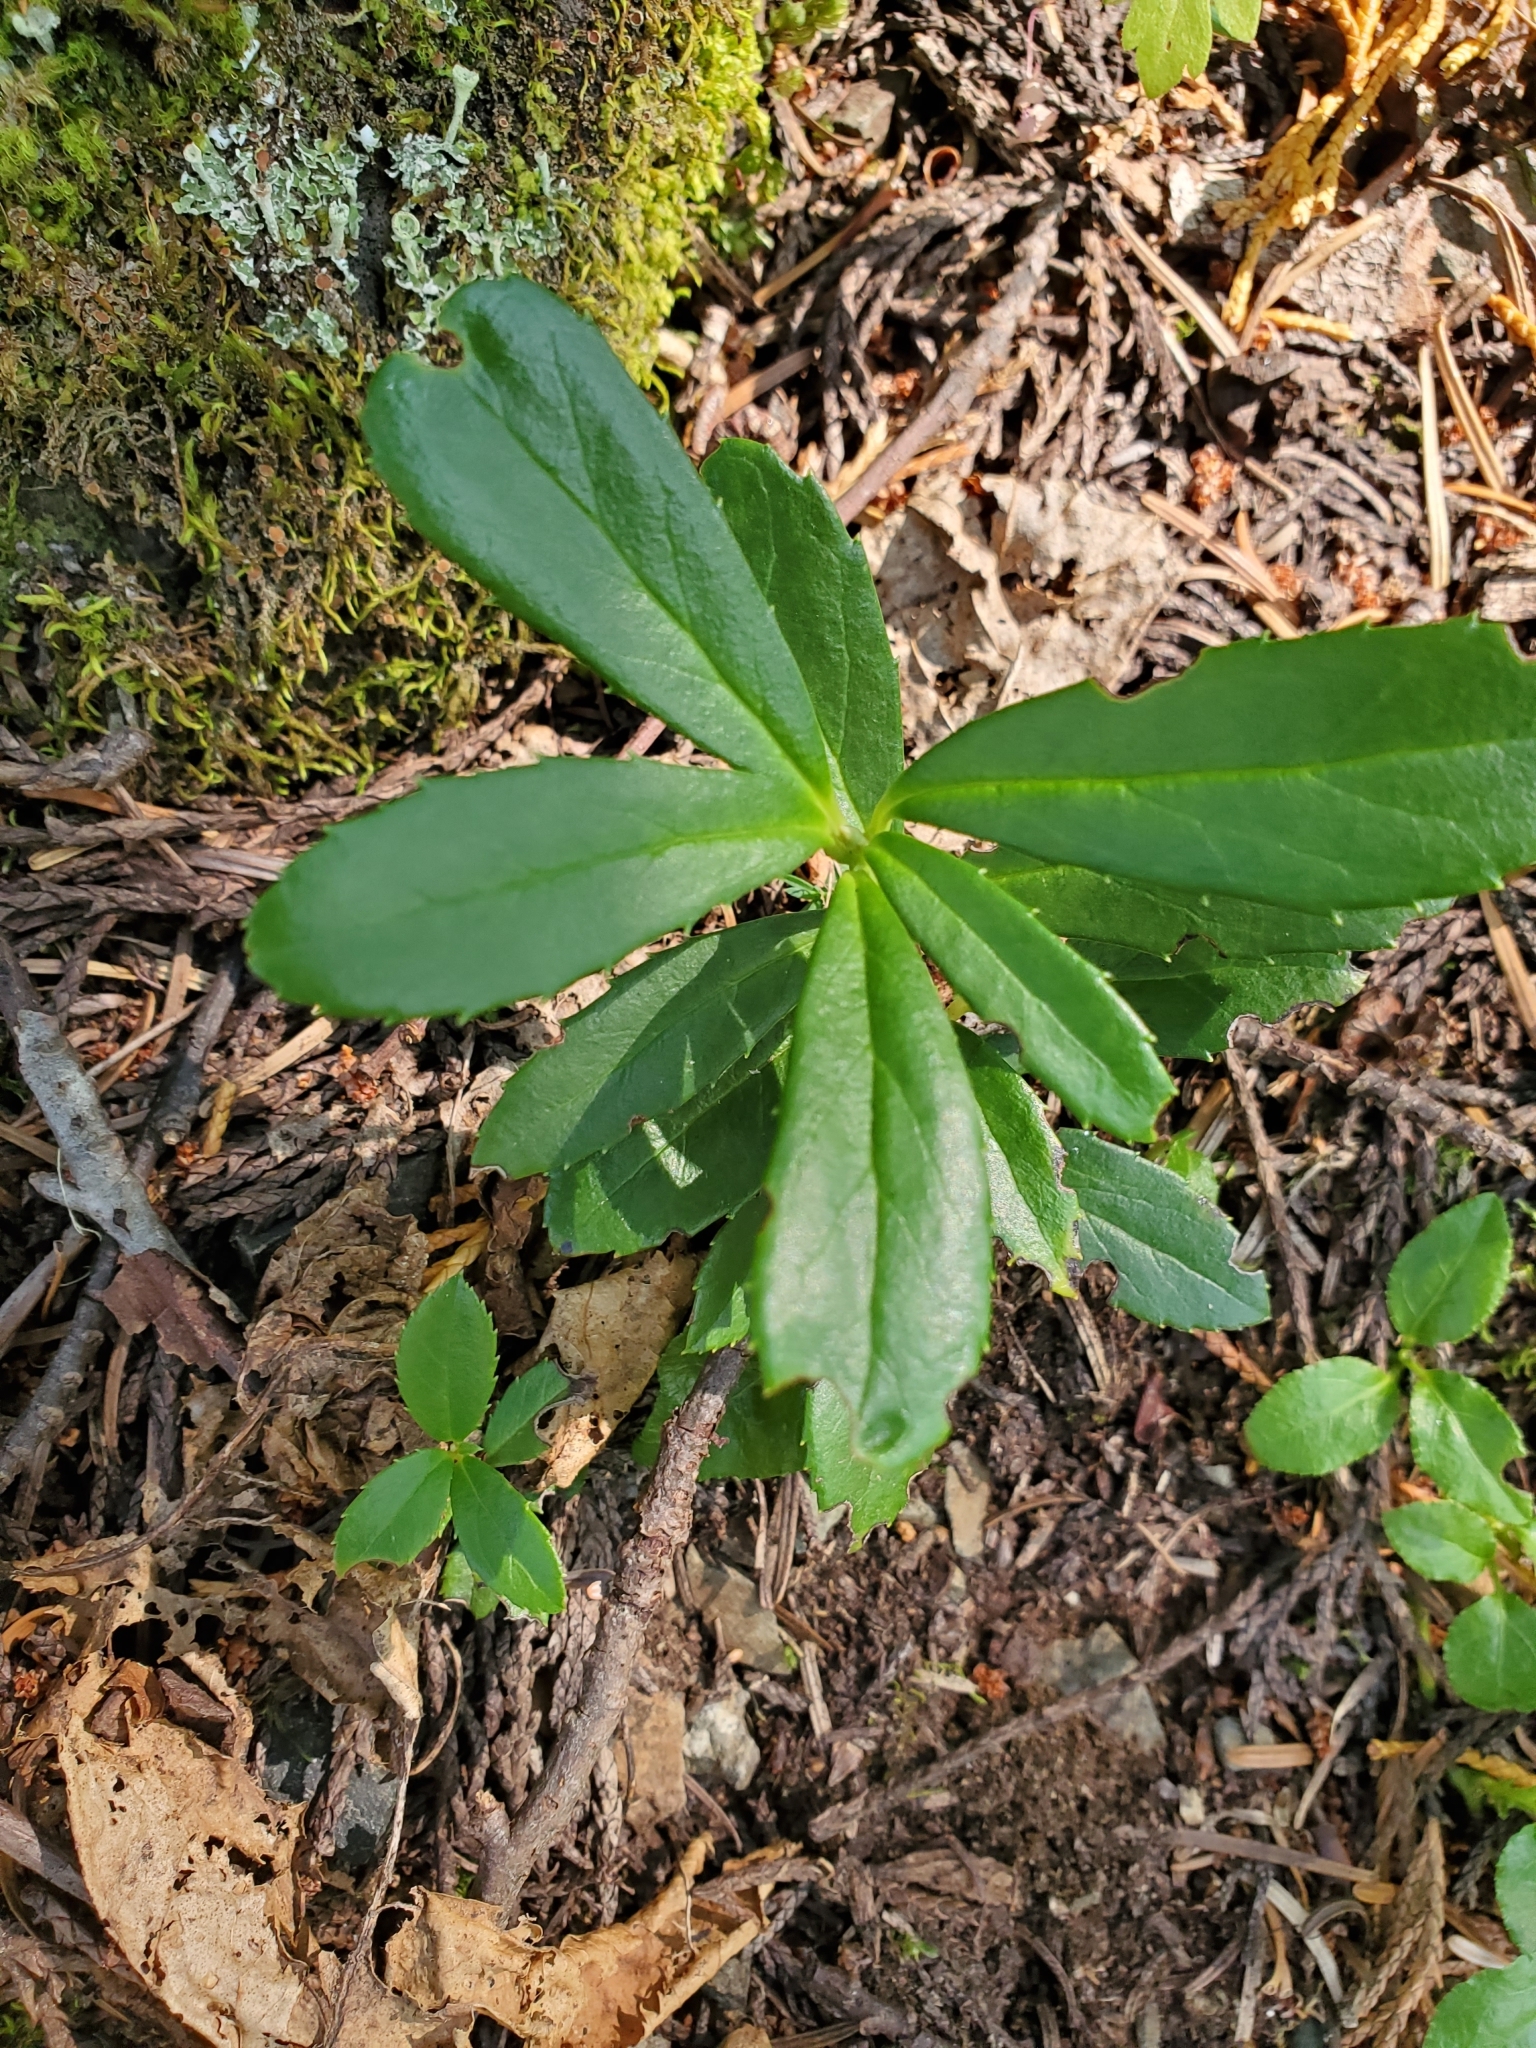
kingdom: Plantae
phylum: Tracheophyta
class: Magnoliopsida
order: Ericales
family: Ericaceae
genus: Chimaphila
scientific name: Chimaphila umbellata
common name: Pipsissewa
